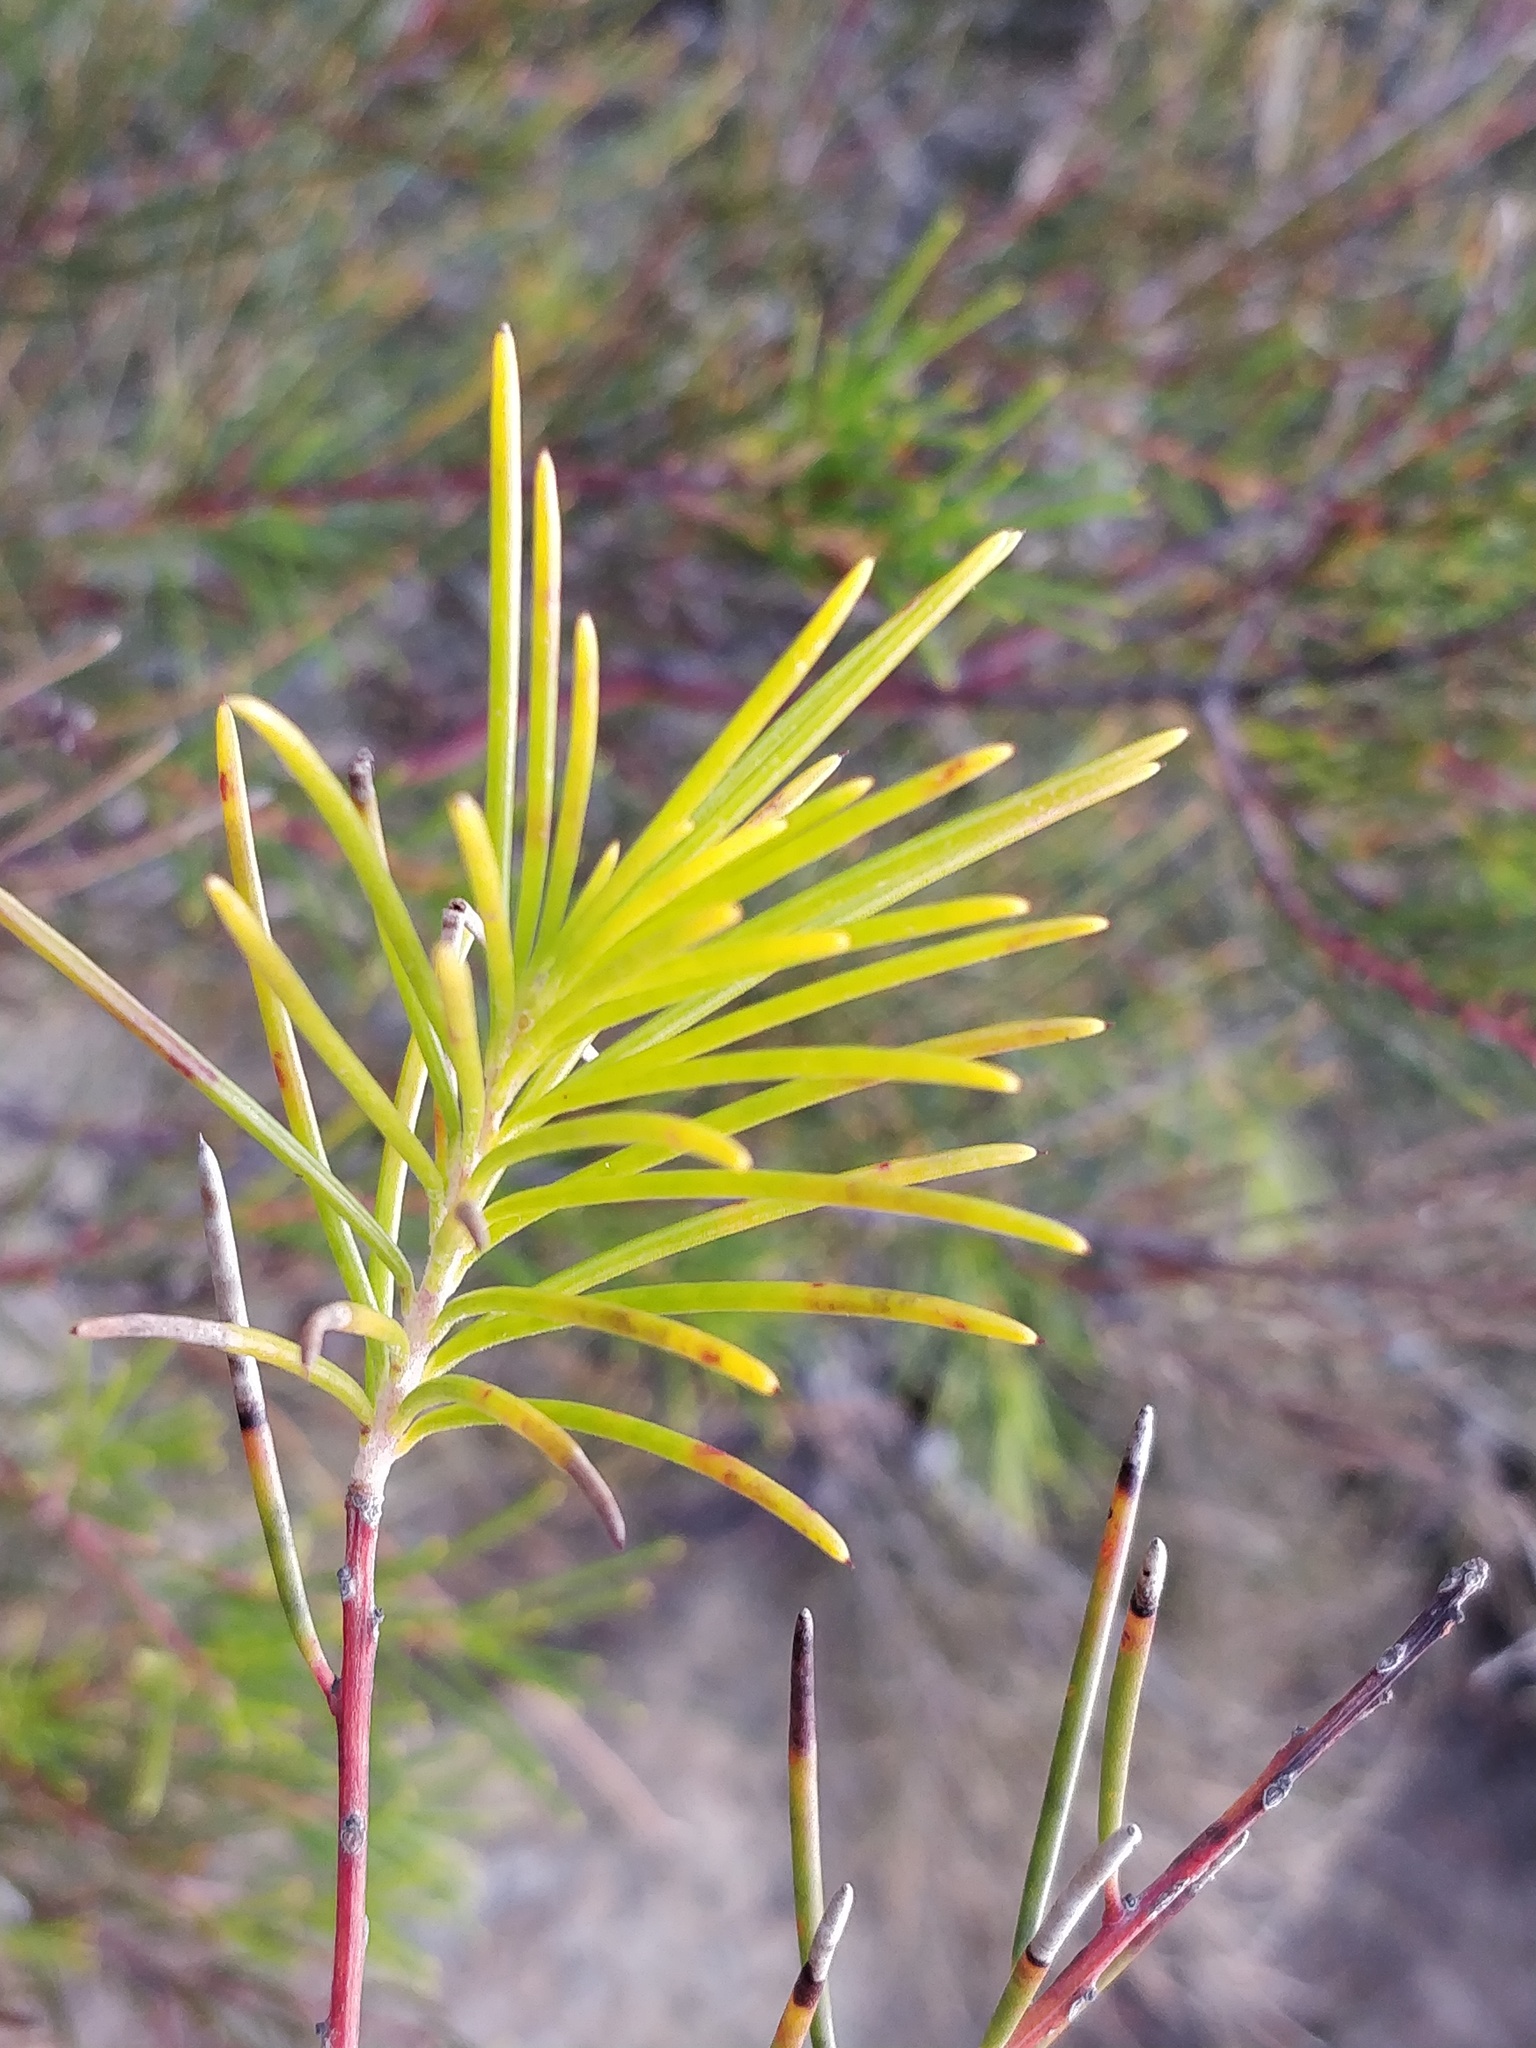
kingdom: Plantae
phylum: Tracheophyta
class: Magnoliopsida
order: Proteales
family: Proteaceae
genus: Hakea
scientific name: Hakea propinqua
